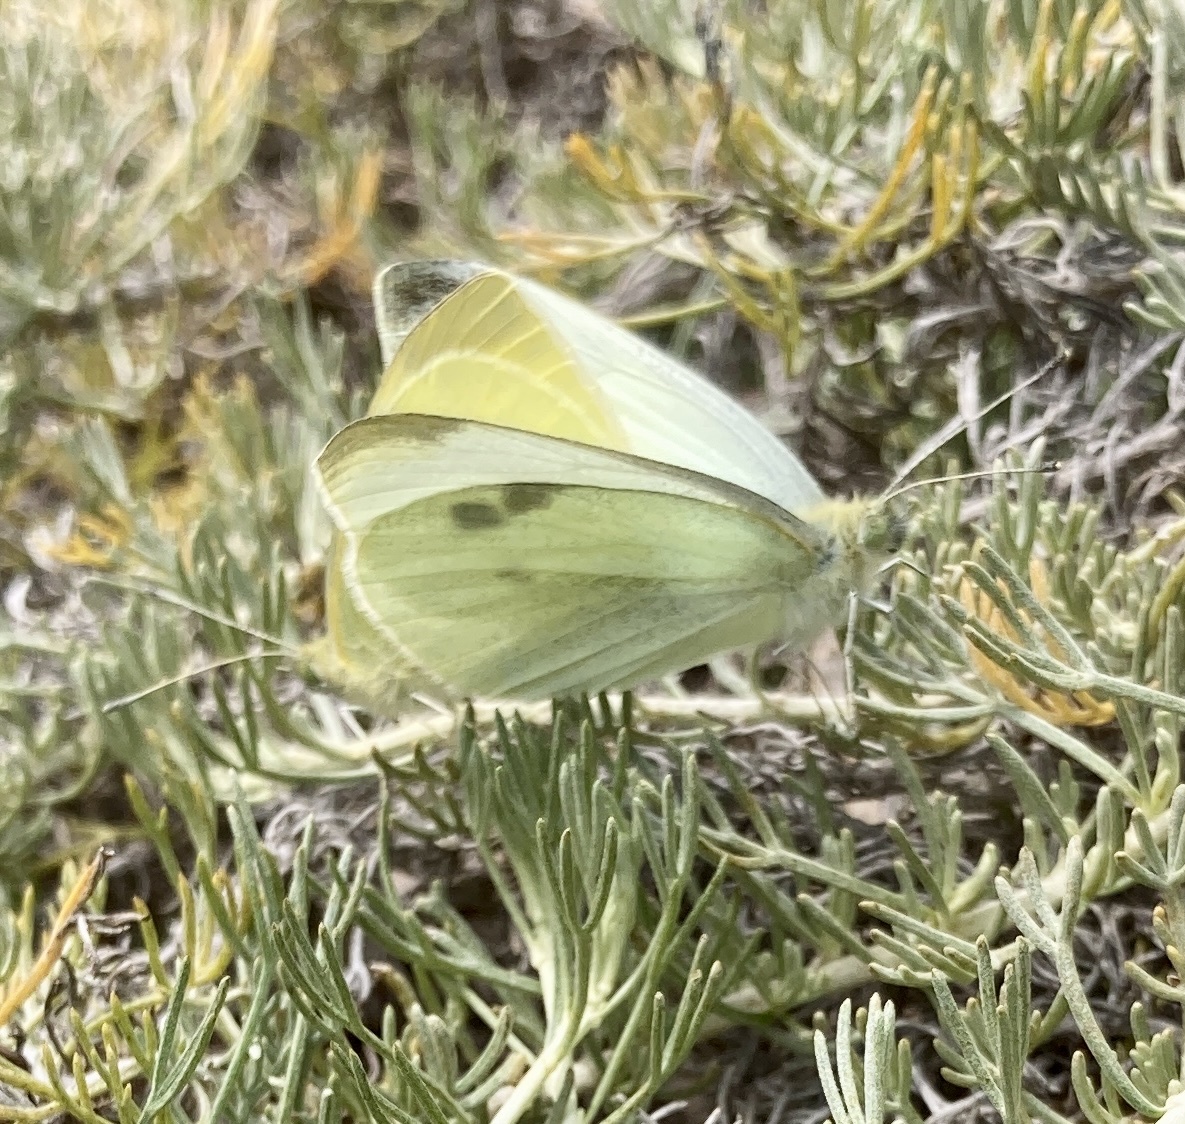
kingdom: Animalia
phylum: Arthropoda
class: Insecta
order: Lepidoptera
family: Pieridae
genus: Pieris
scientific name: Pieris rapae
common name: Small white
